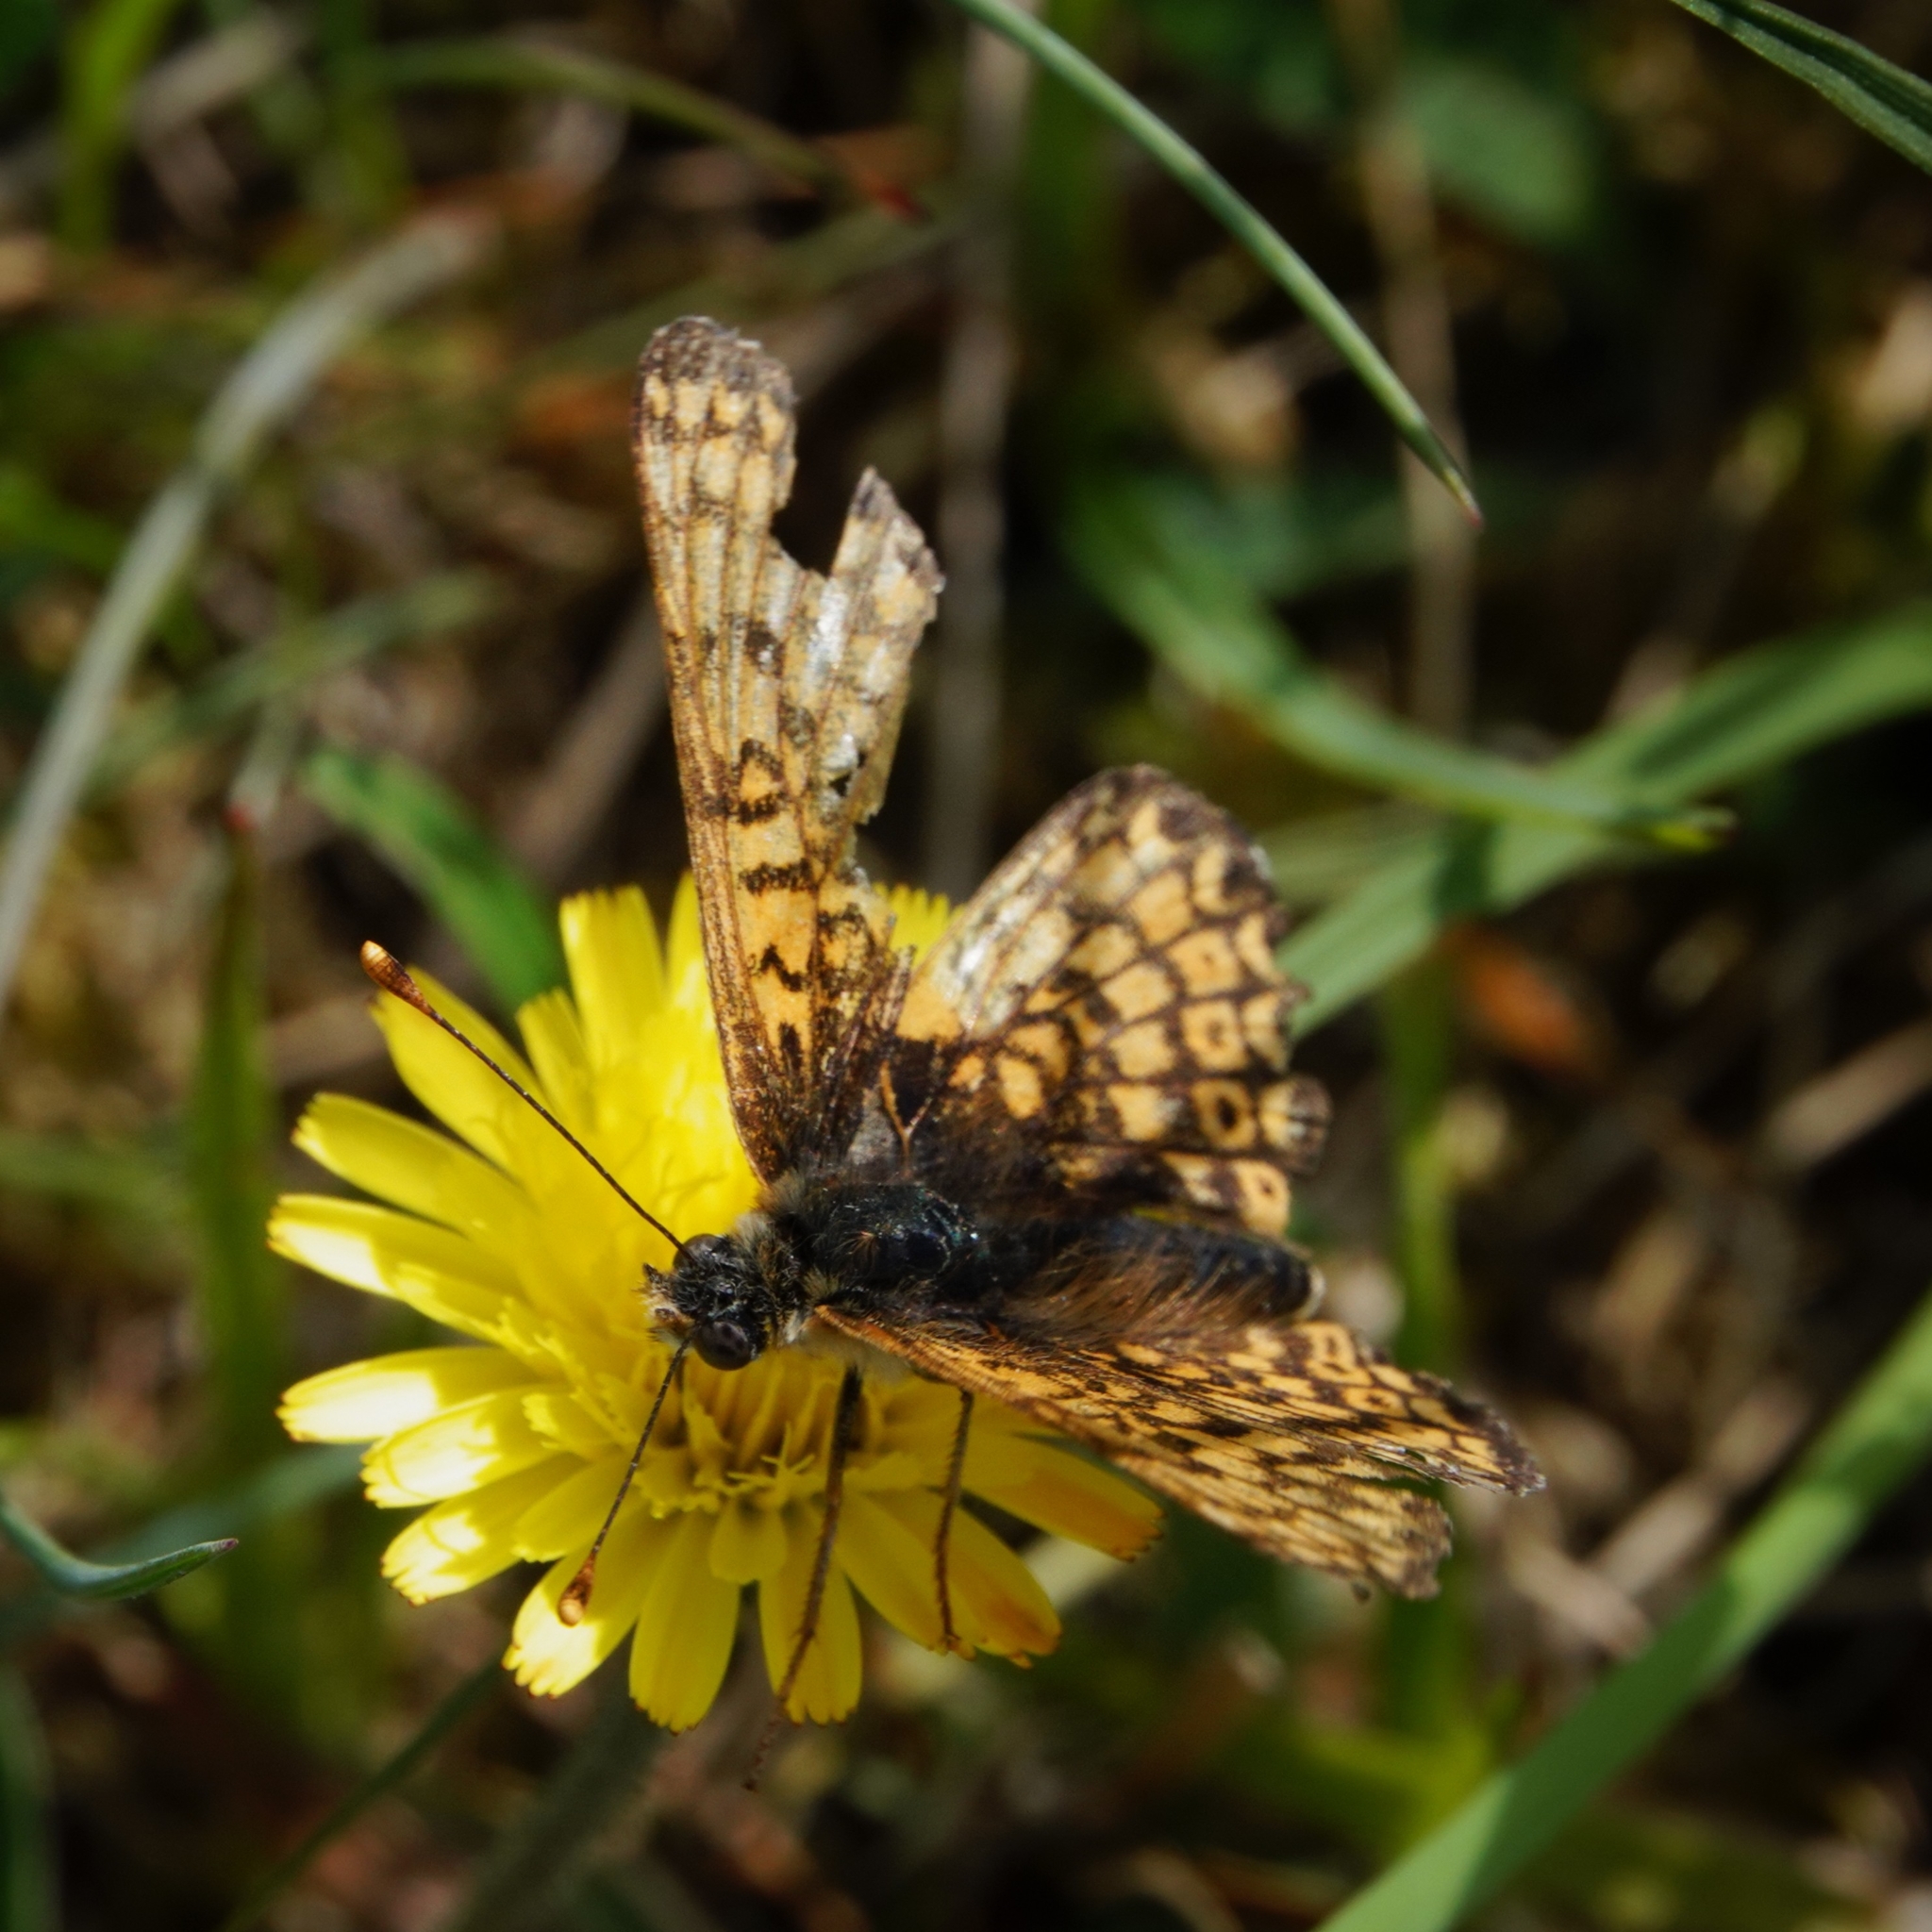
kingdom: Animalia
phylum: Arthropoda
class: Insecta
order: Lepidoptera
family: Nymphalidae
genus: Melitaea
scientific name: Melitaea cinxia
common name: Glanville fritillary
